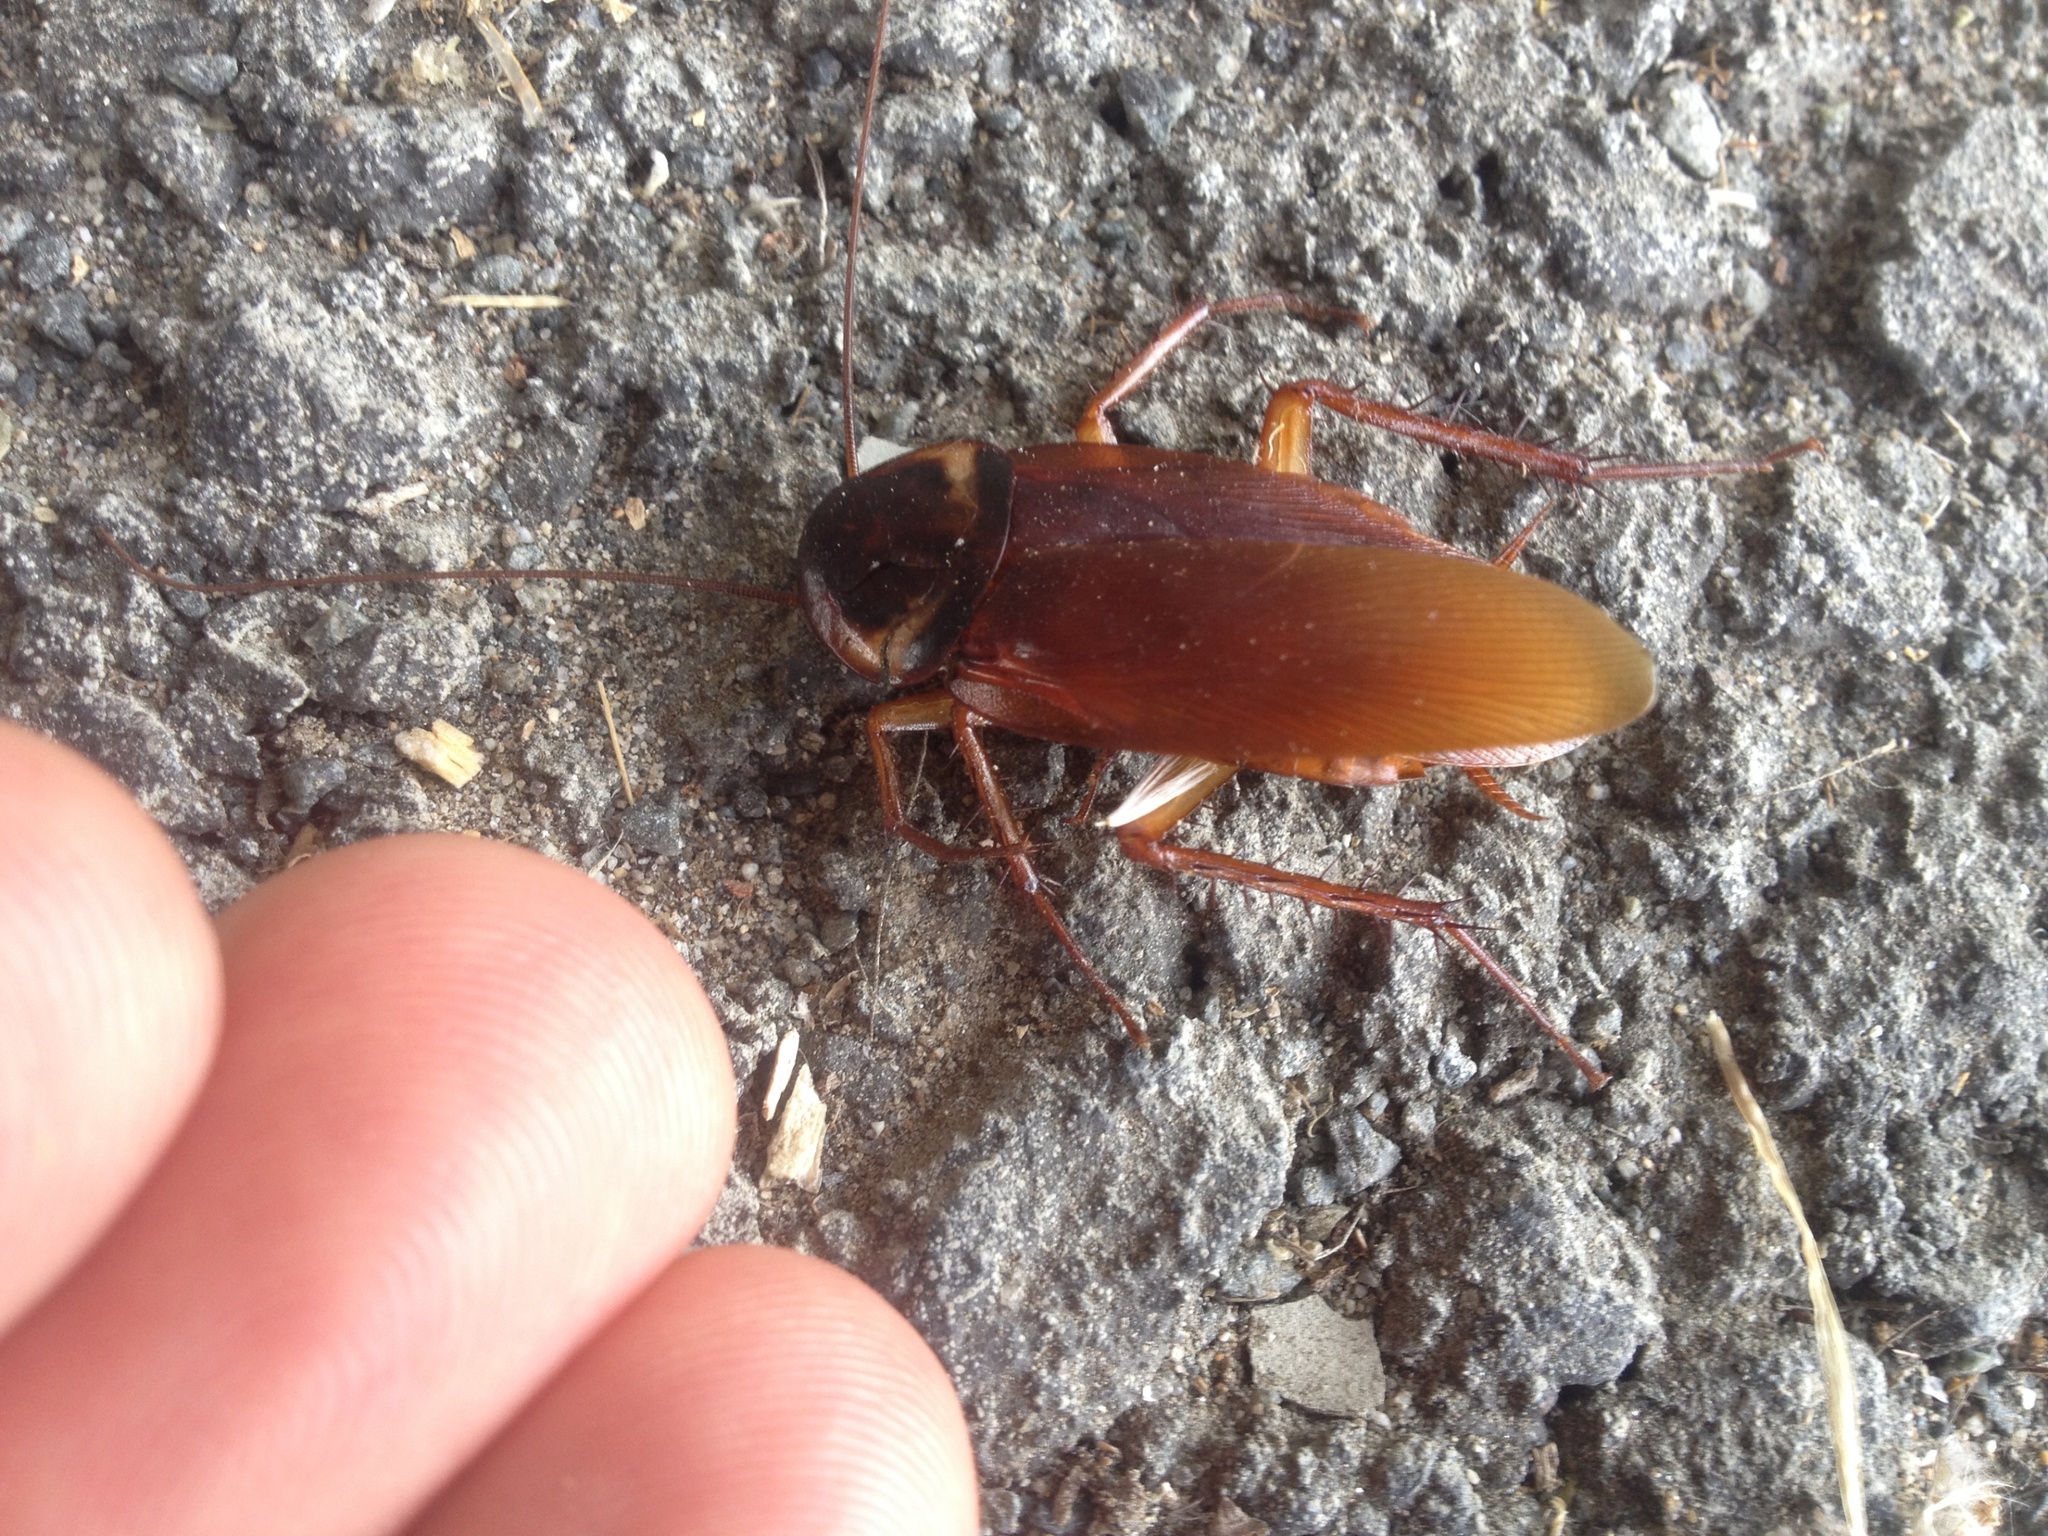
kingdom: Animalia
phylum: Arthropoda
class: Insecta
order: Blattodea
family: Blattidae
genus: Periplaneta
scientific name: Periplaneta americana
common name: American cockroach
